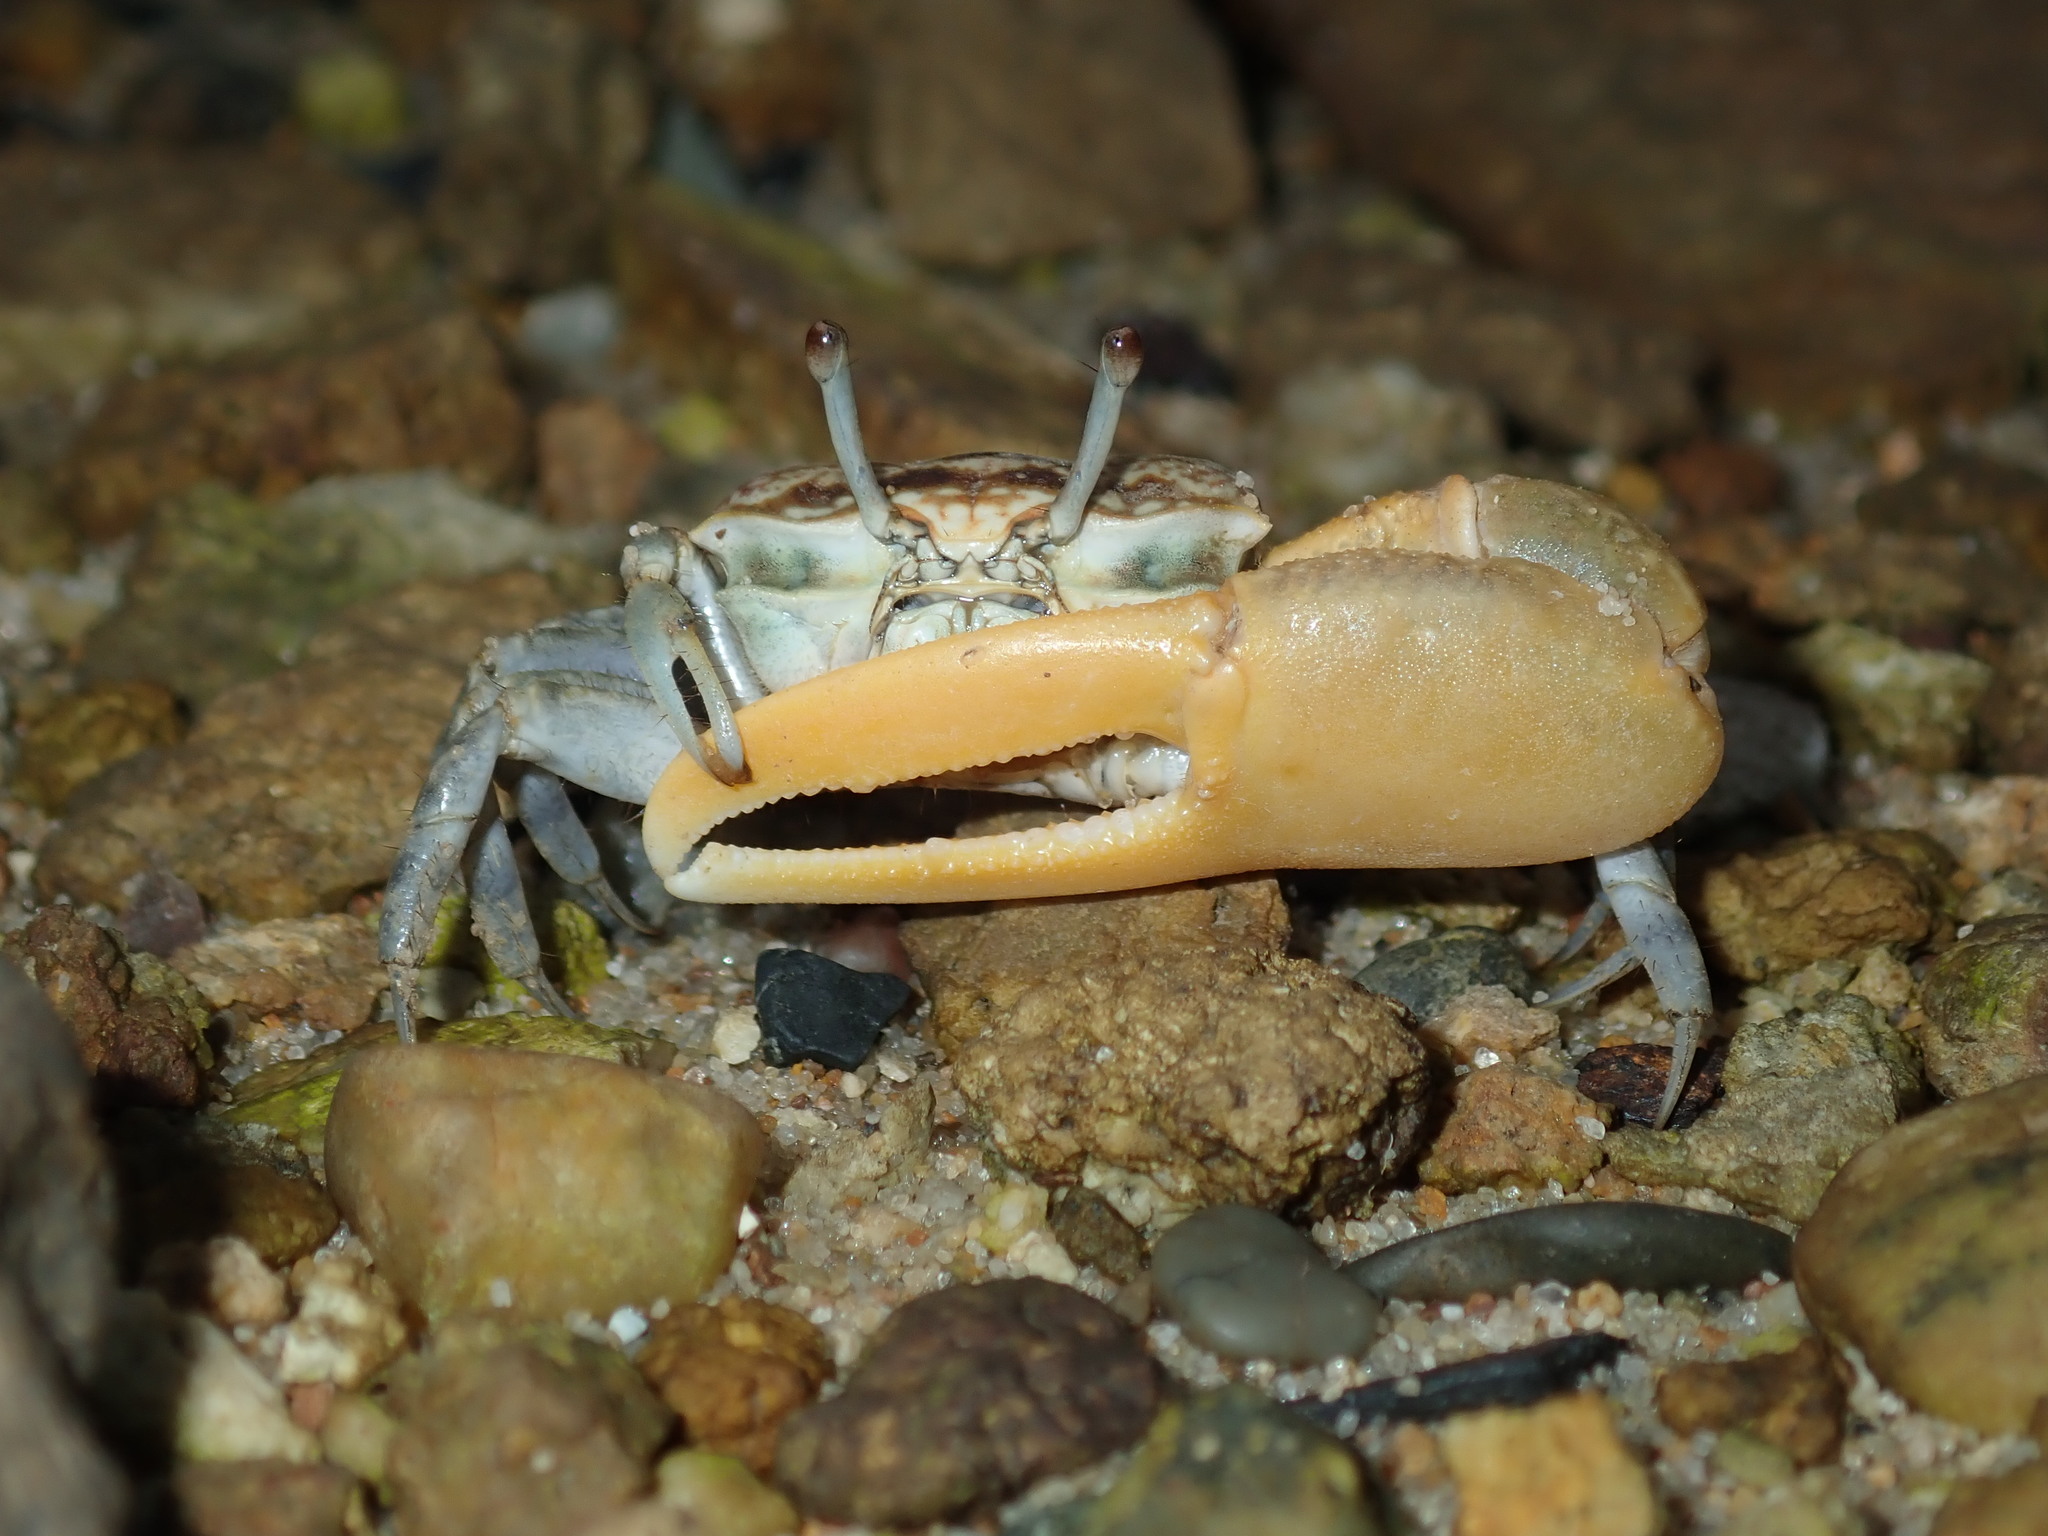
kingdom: Animalia
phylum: Arthropoda
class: Malacostraca
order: Decapoda
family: Ocypodidae
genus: Austruca
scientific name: Austruca perplexa
